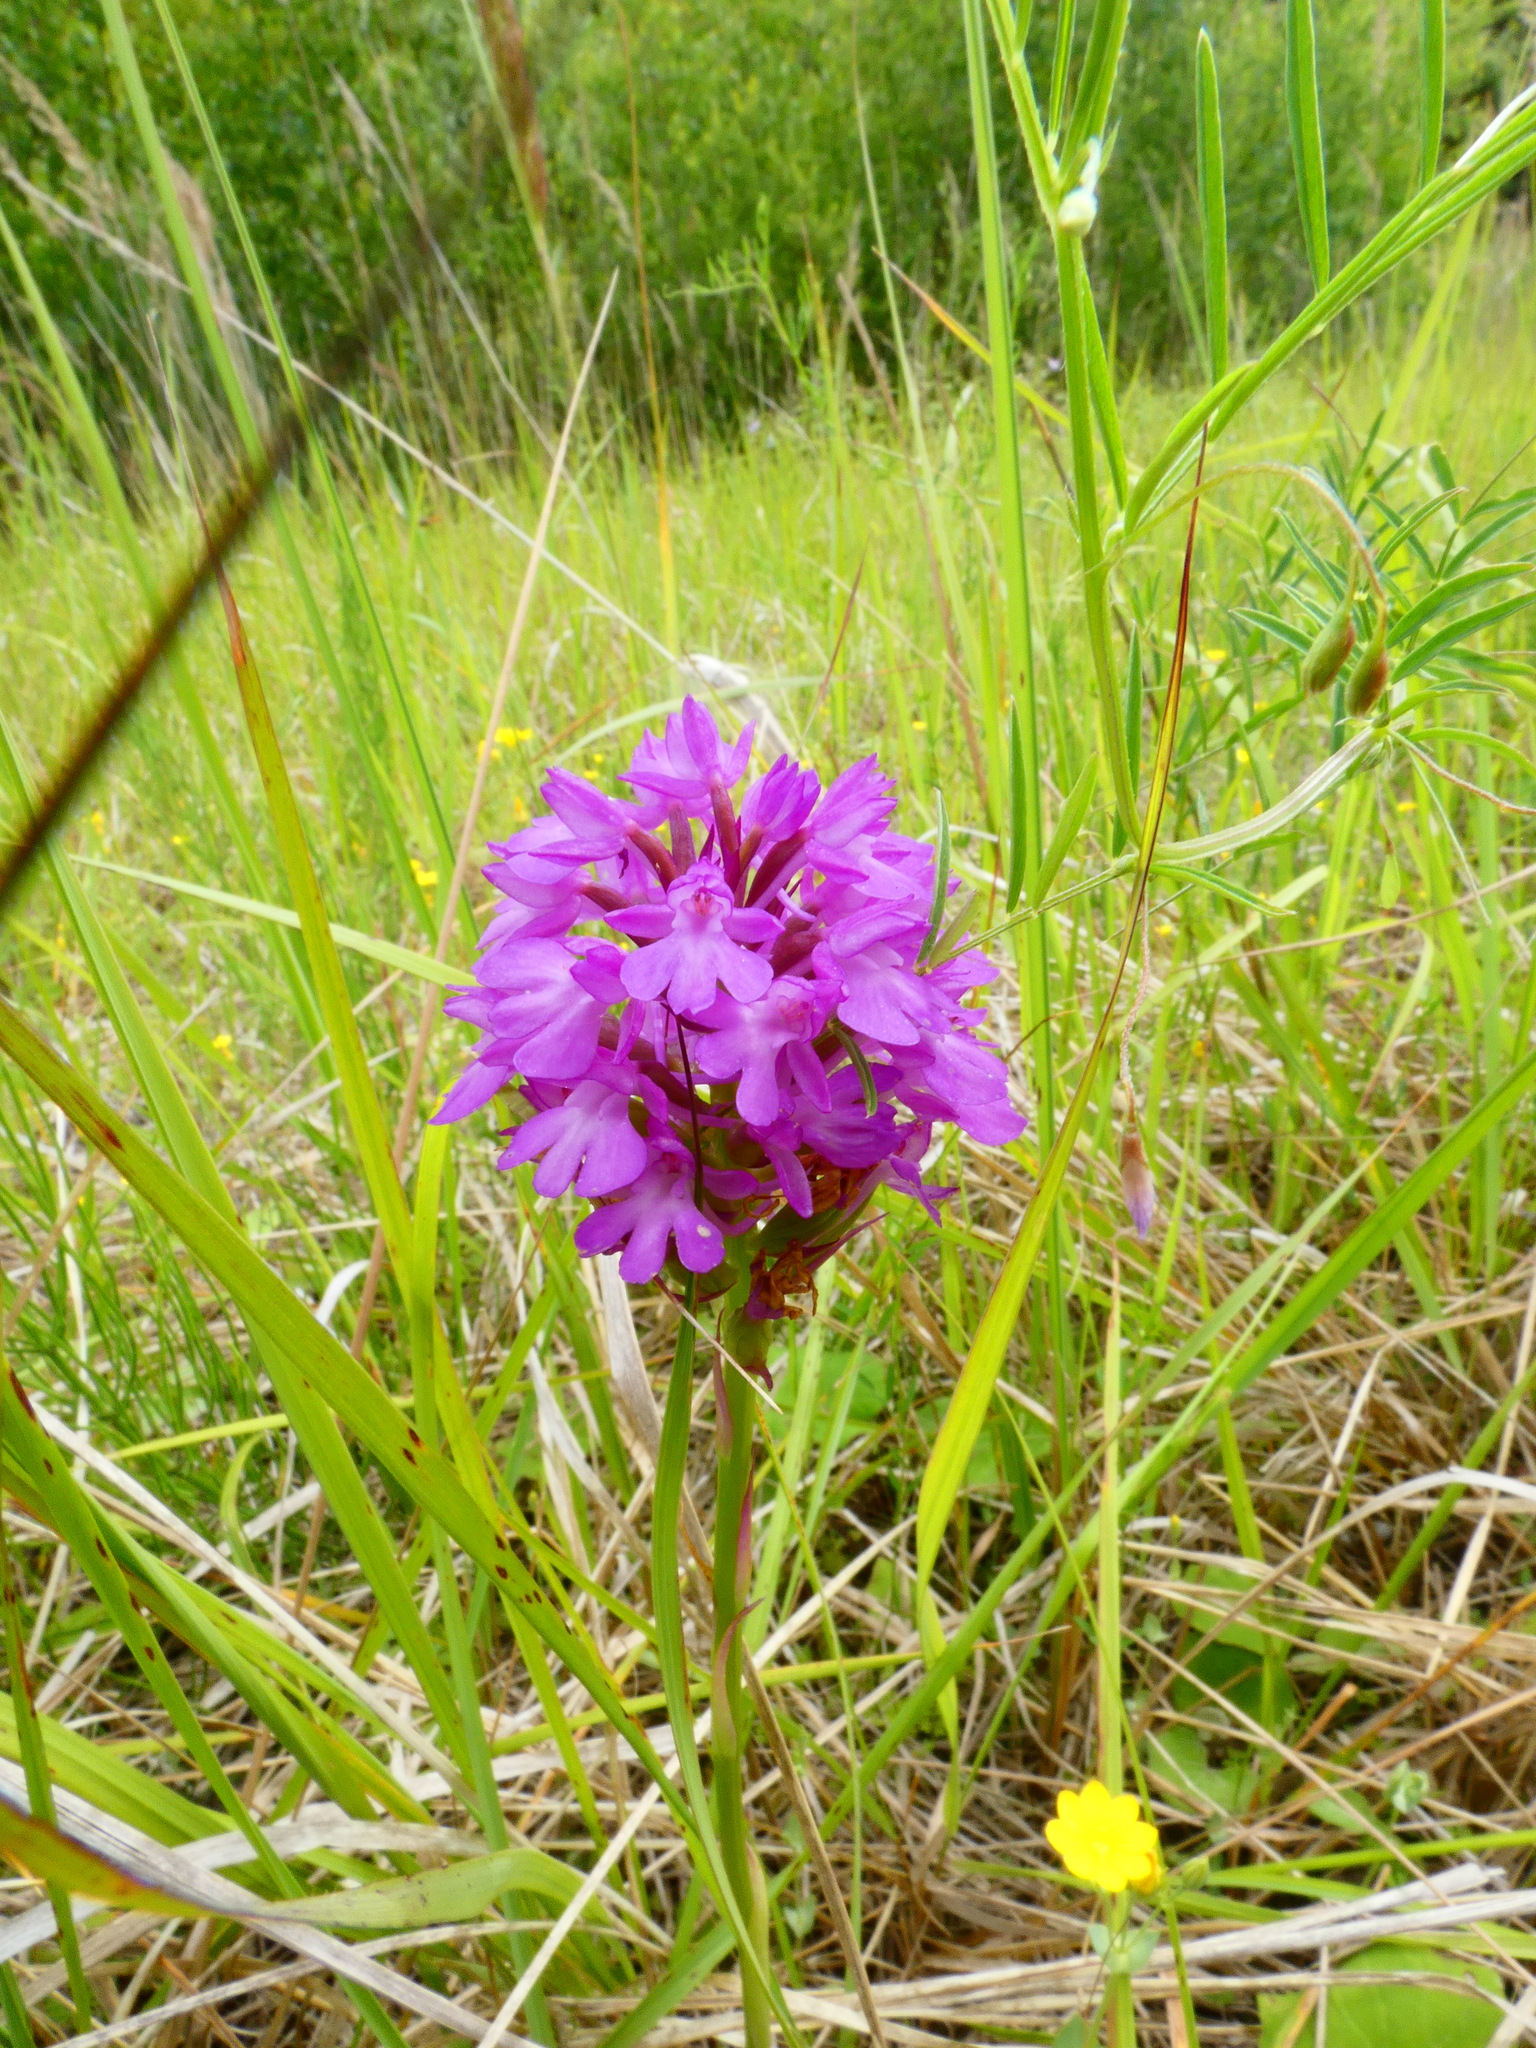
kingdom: Plantae
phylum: Tracheophyta
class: Liliopsida
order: Asparagales
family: Orchidaceae
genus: Anacamptis
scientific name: Anacamptis pyramidalis
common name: Pyramidal orchid
